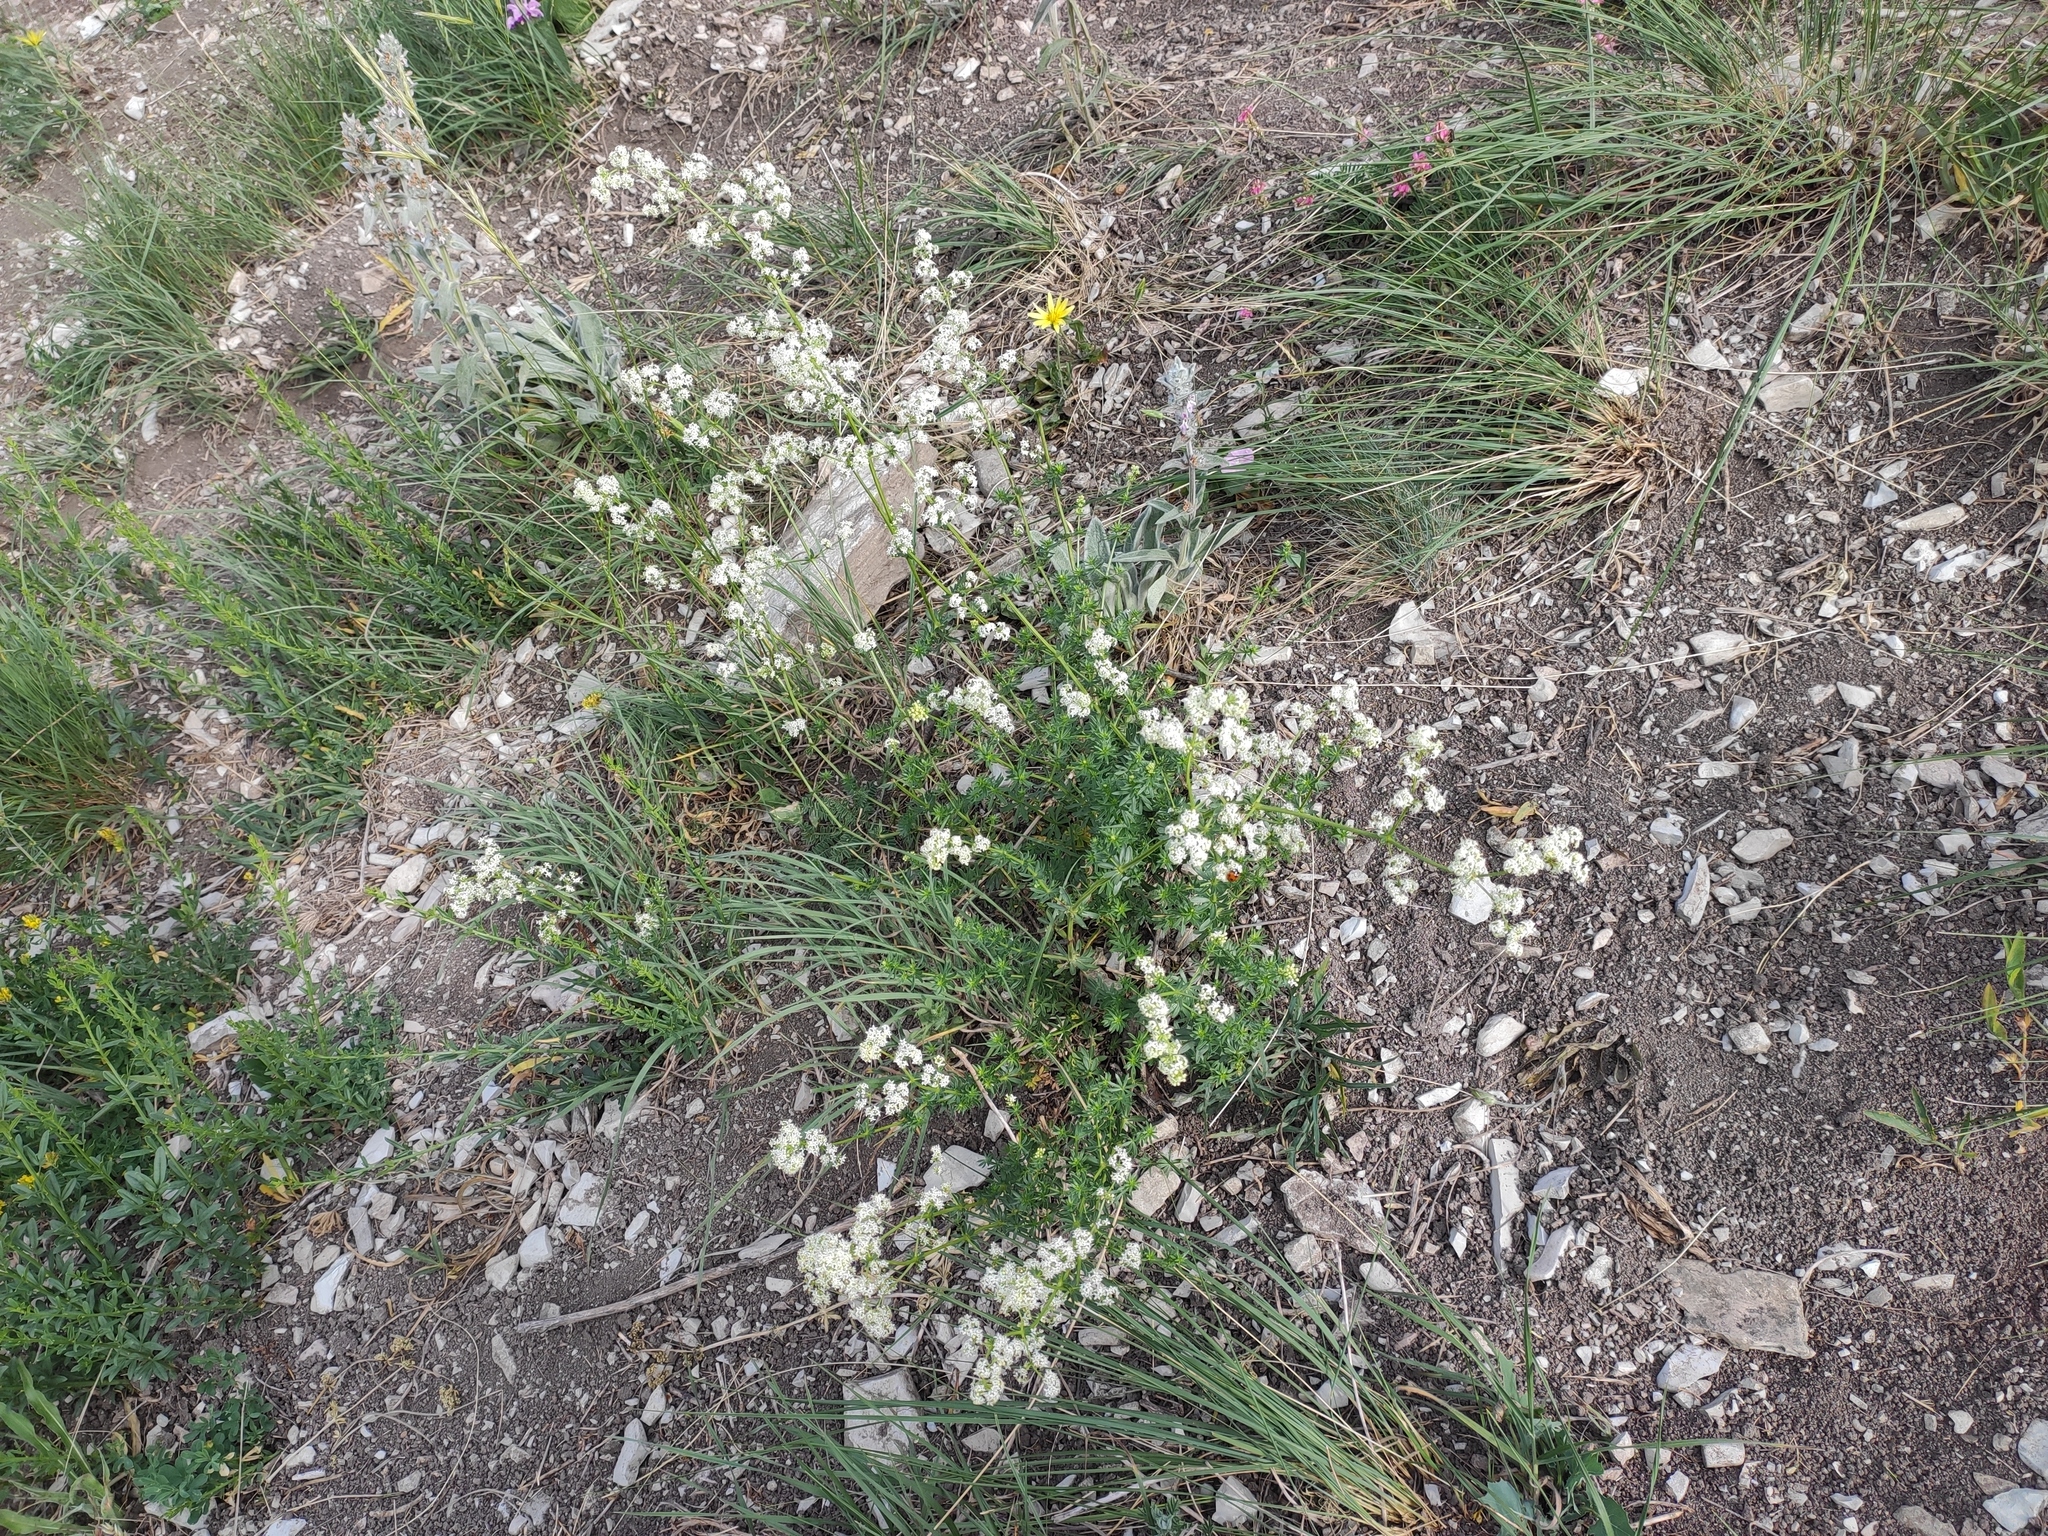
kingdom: Plantae
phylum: Tracheophyta
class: Magnoliopsida
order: Gentianales
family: Rubiaceae
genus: Galium
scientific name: Galium mollugo
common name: Hedge bedstraw
